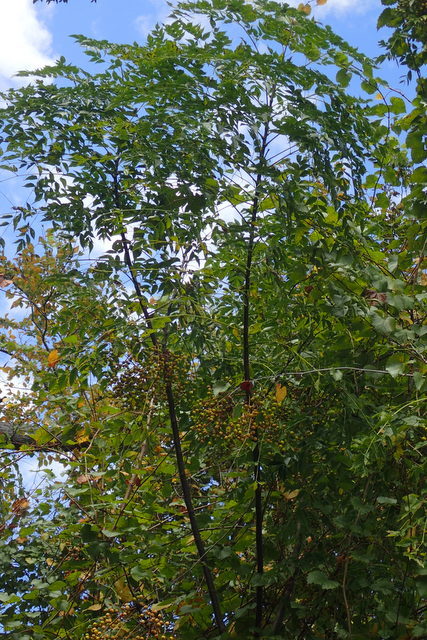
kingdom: Plantae
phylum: Tracheophyta
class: Magnoliopsida
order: Sapindales
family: Meliaceae
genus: Melia
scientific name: Melia azedarach
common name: Chinaberrytree
